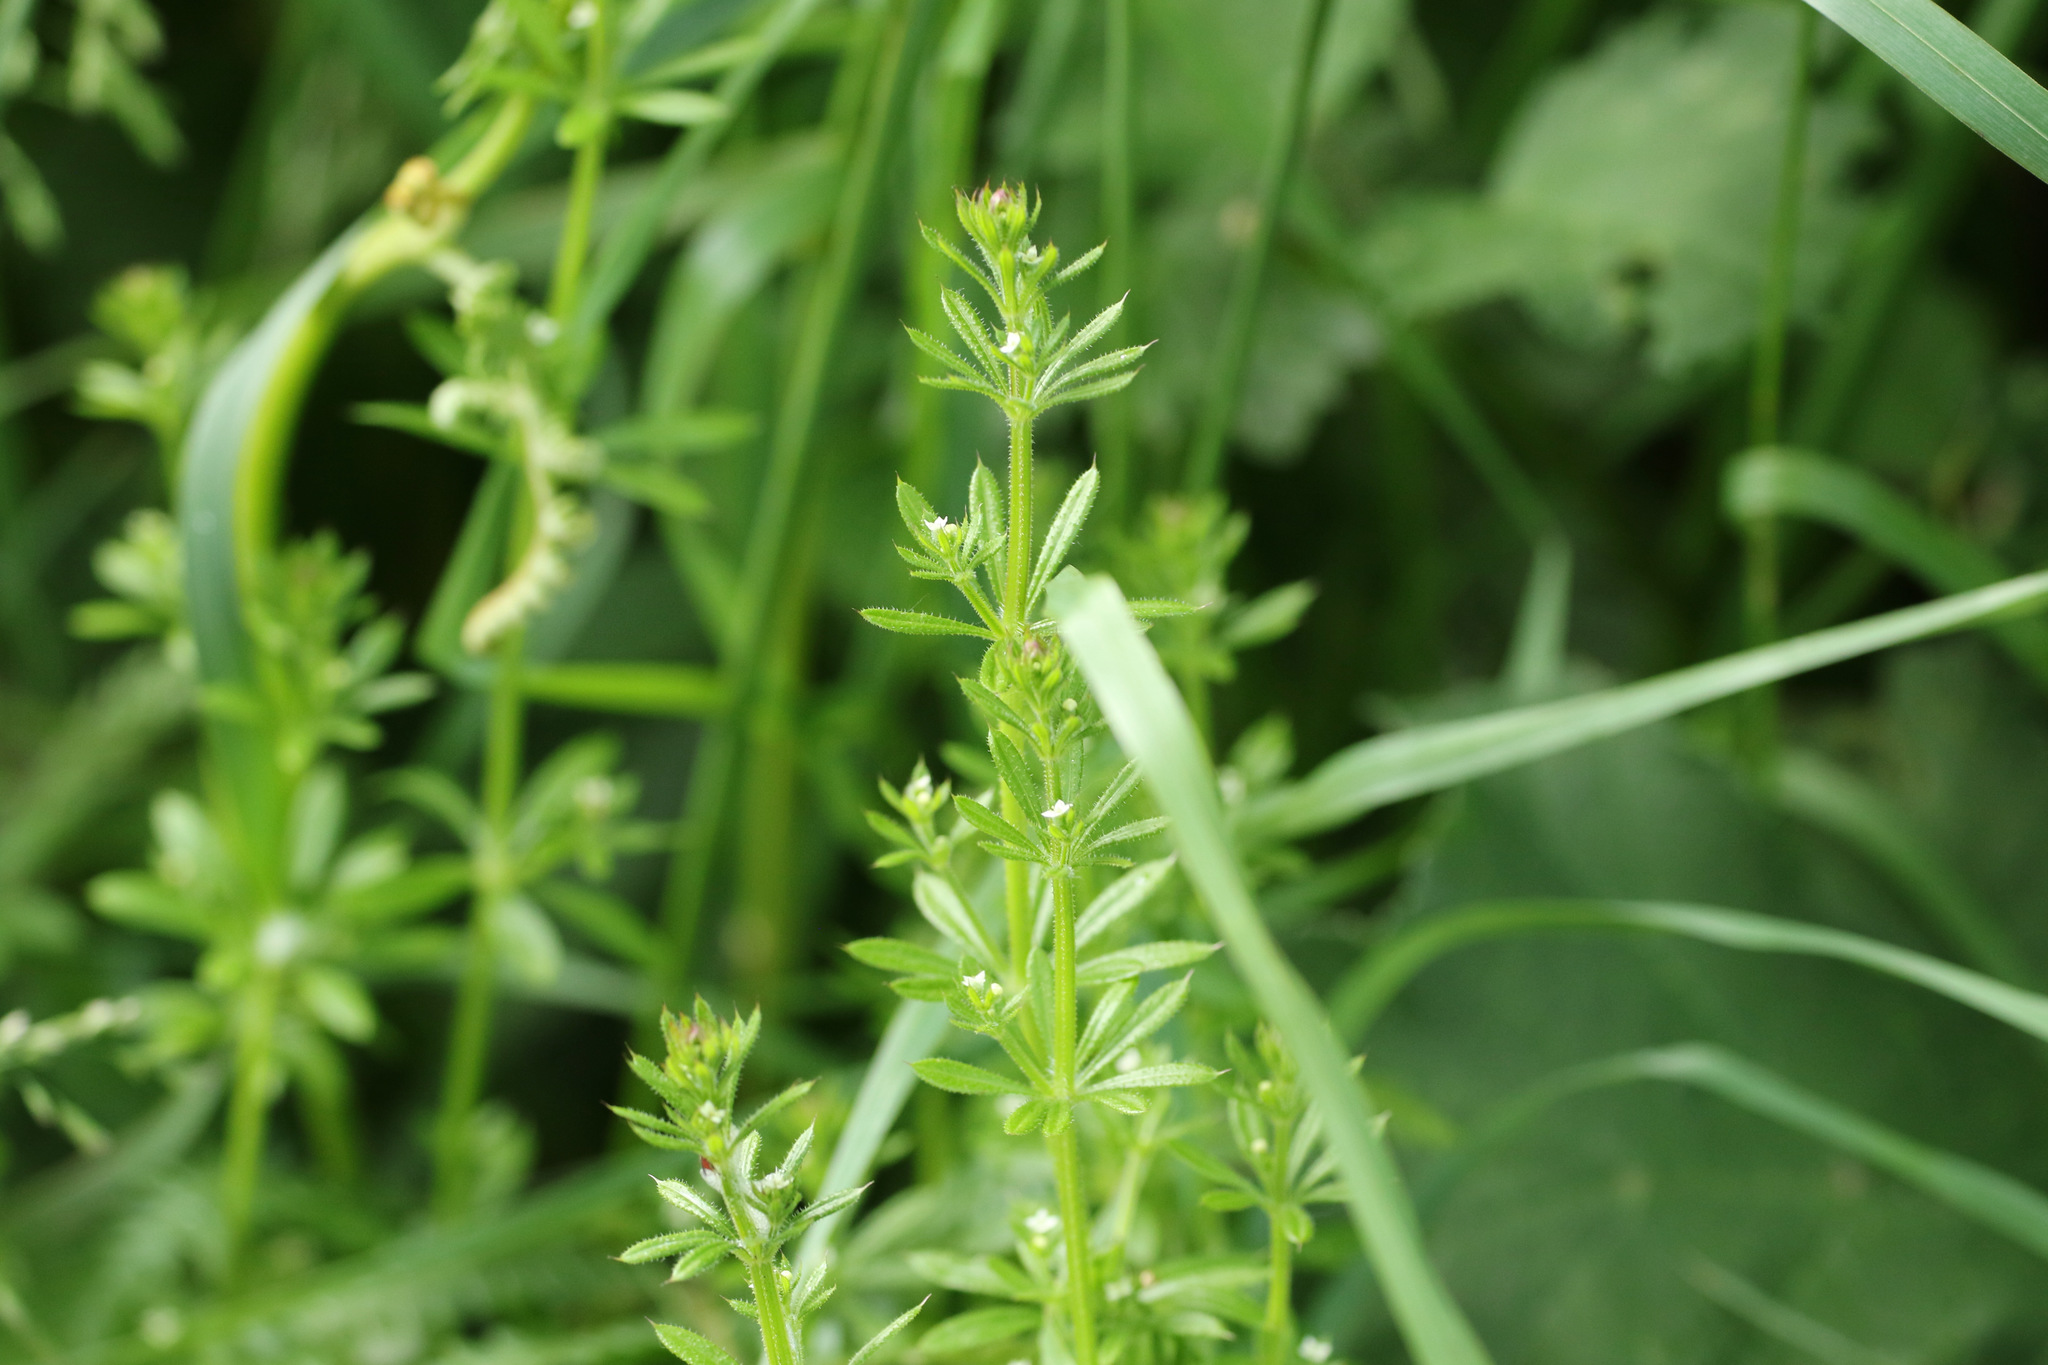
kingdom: Plantae
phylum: Tracheophyta
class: Magnoliopsida
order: Gentianales
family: Rubiaceae
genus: Galium
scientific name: Galium aparine
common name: Cleavers
